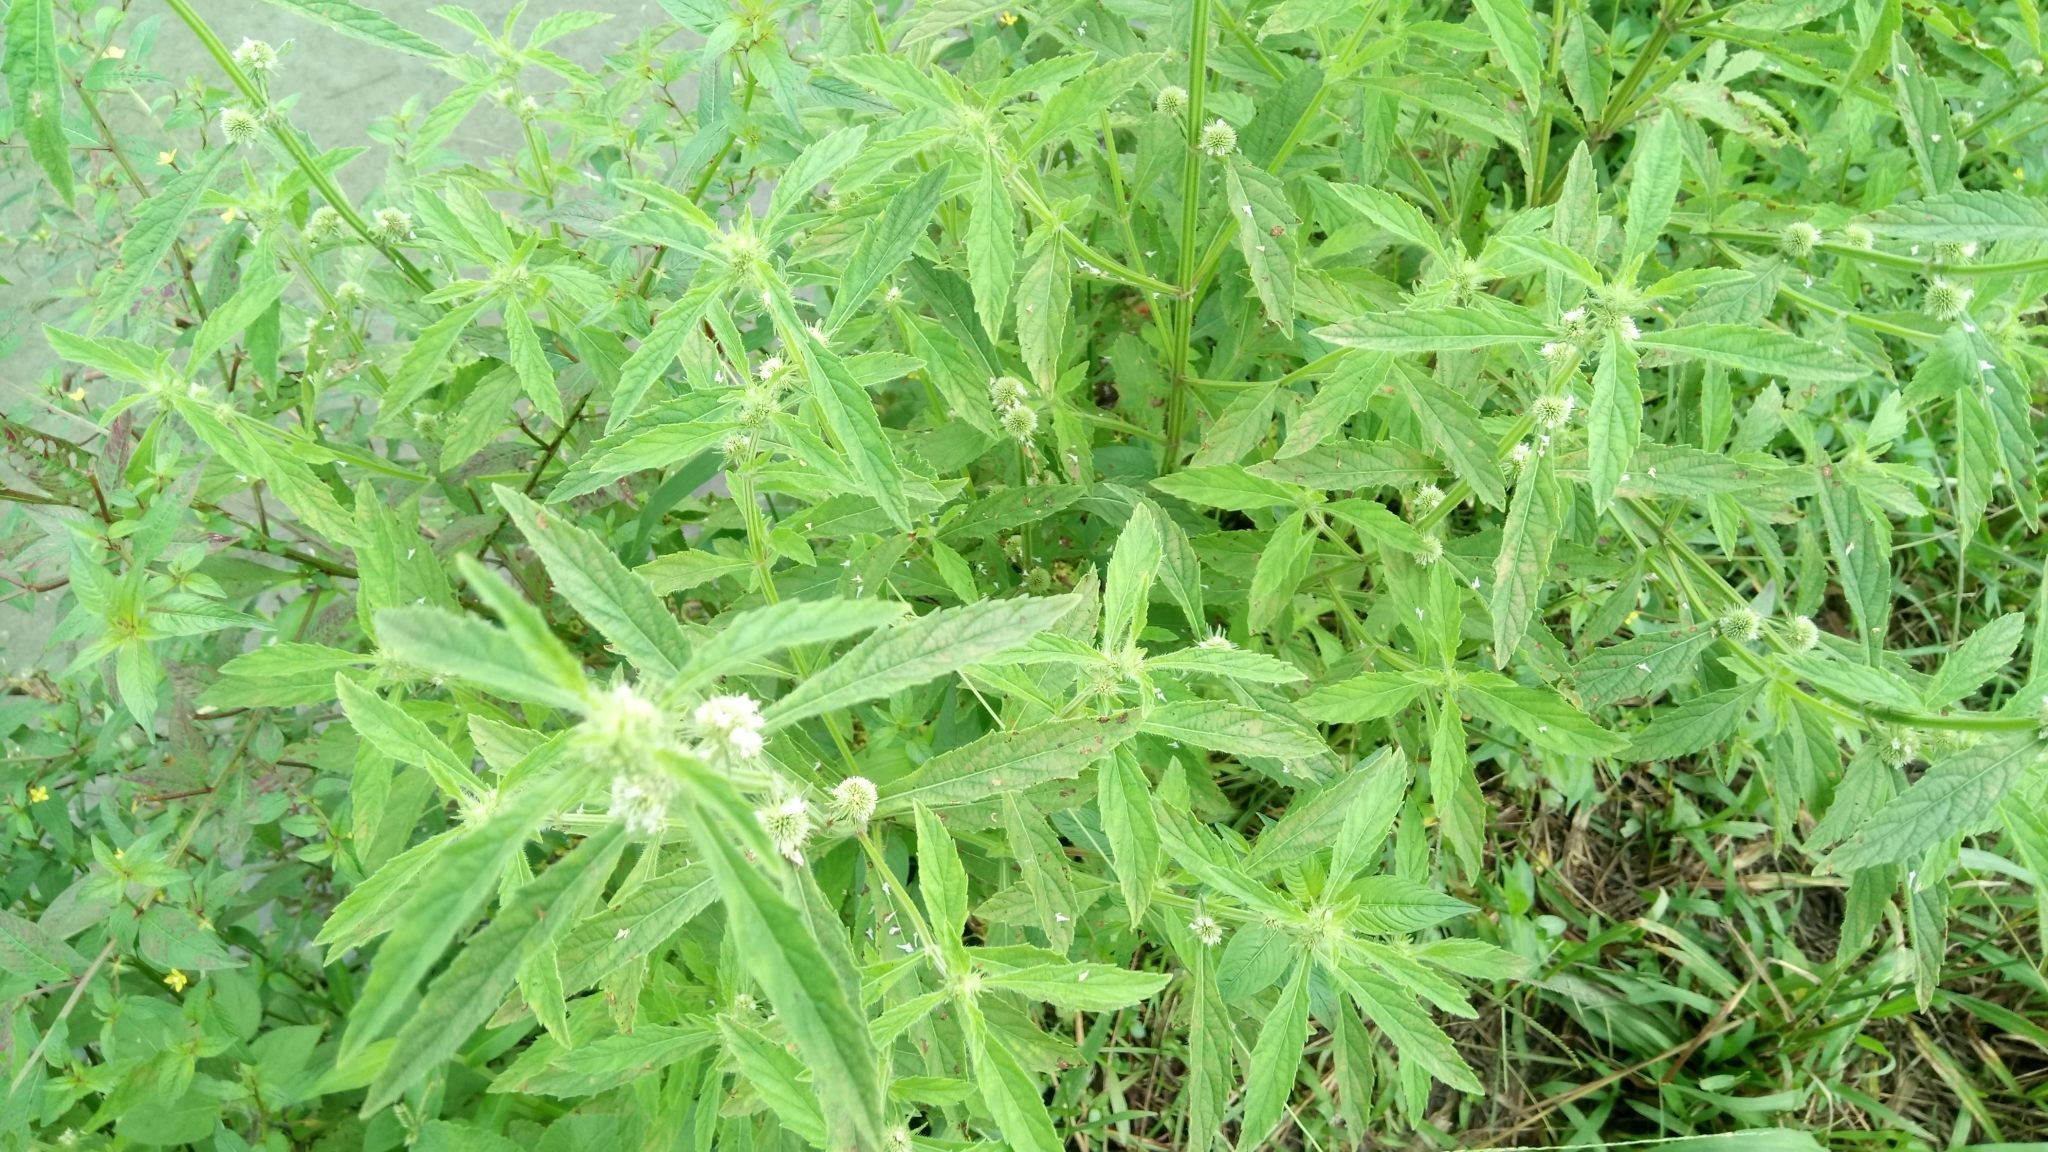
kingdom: Plantae
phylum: Tracheophyta
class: Magnoliopsida
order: Lamiales
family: Lamiaceae
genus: Hyptis
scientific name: Hyptis brevipes
